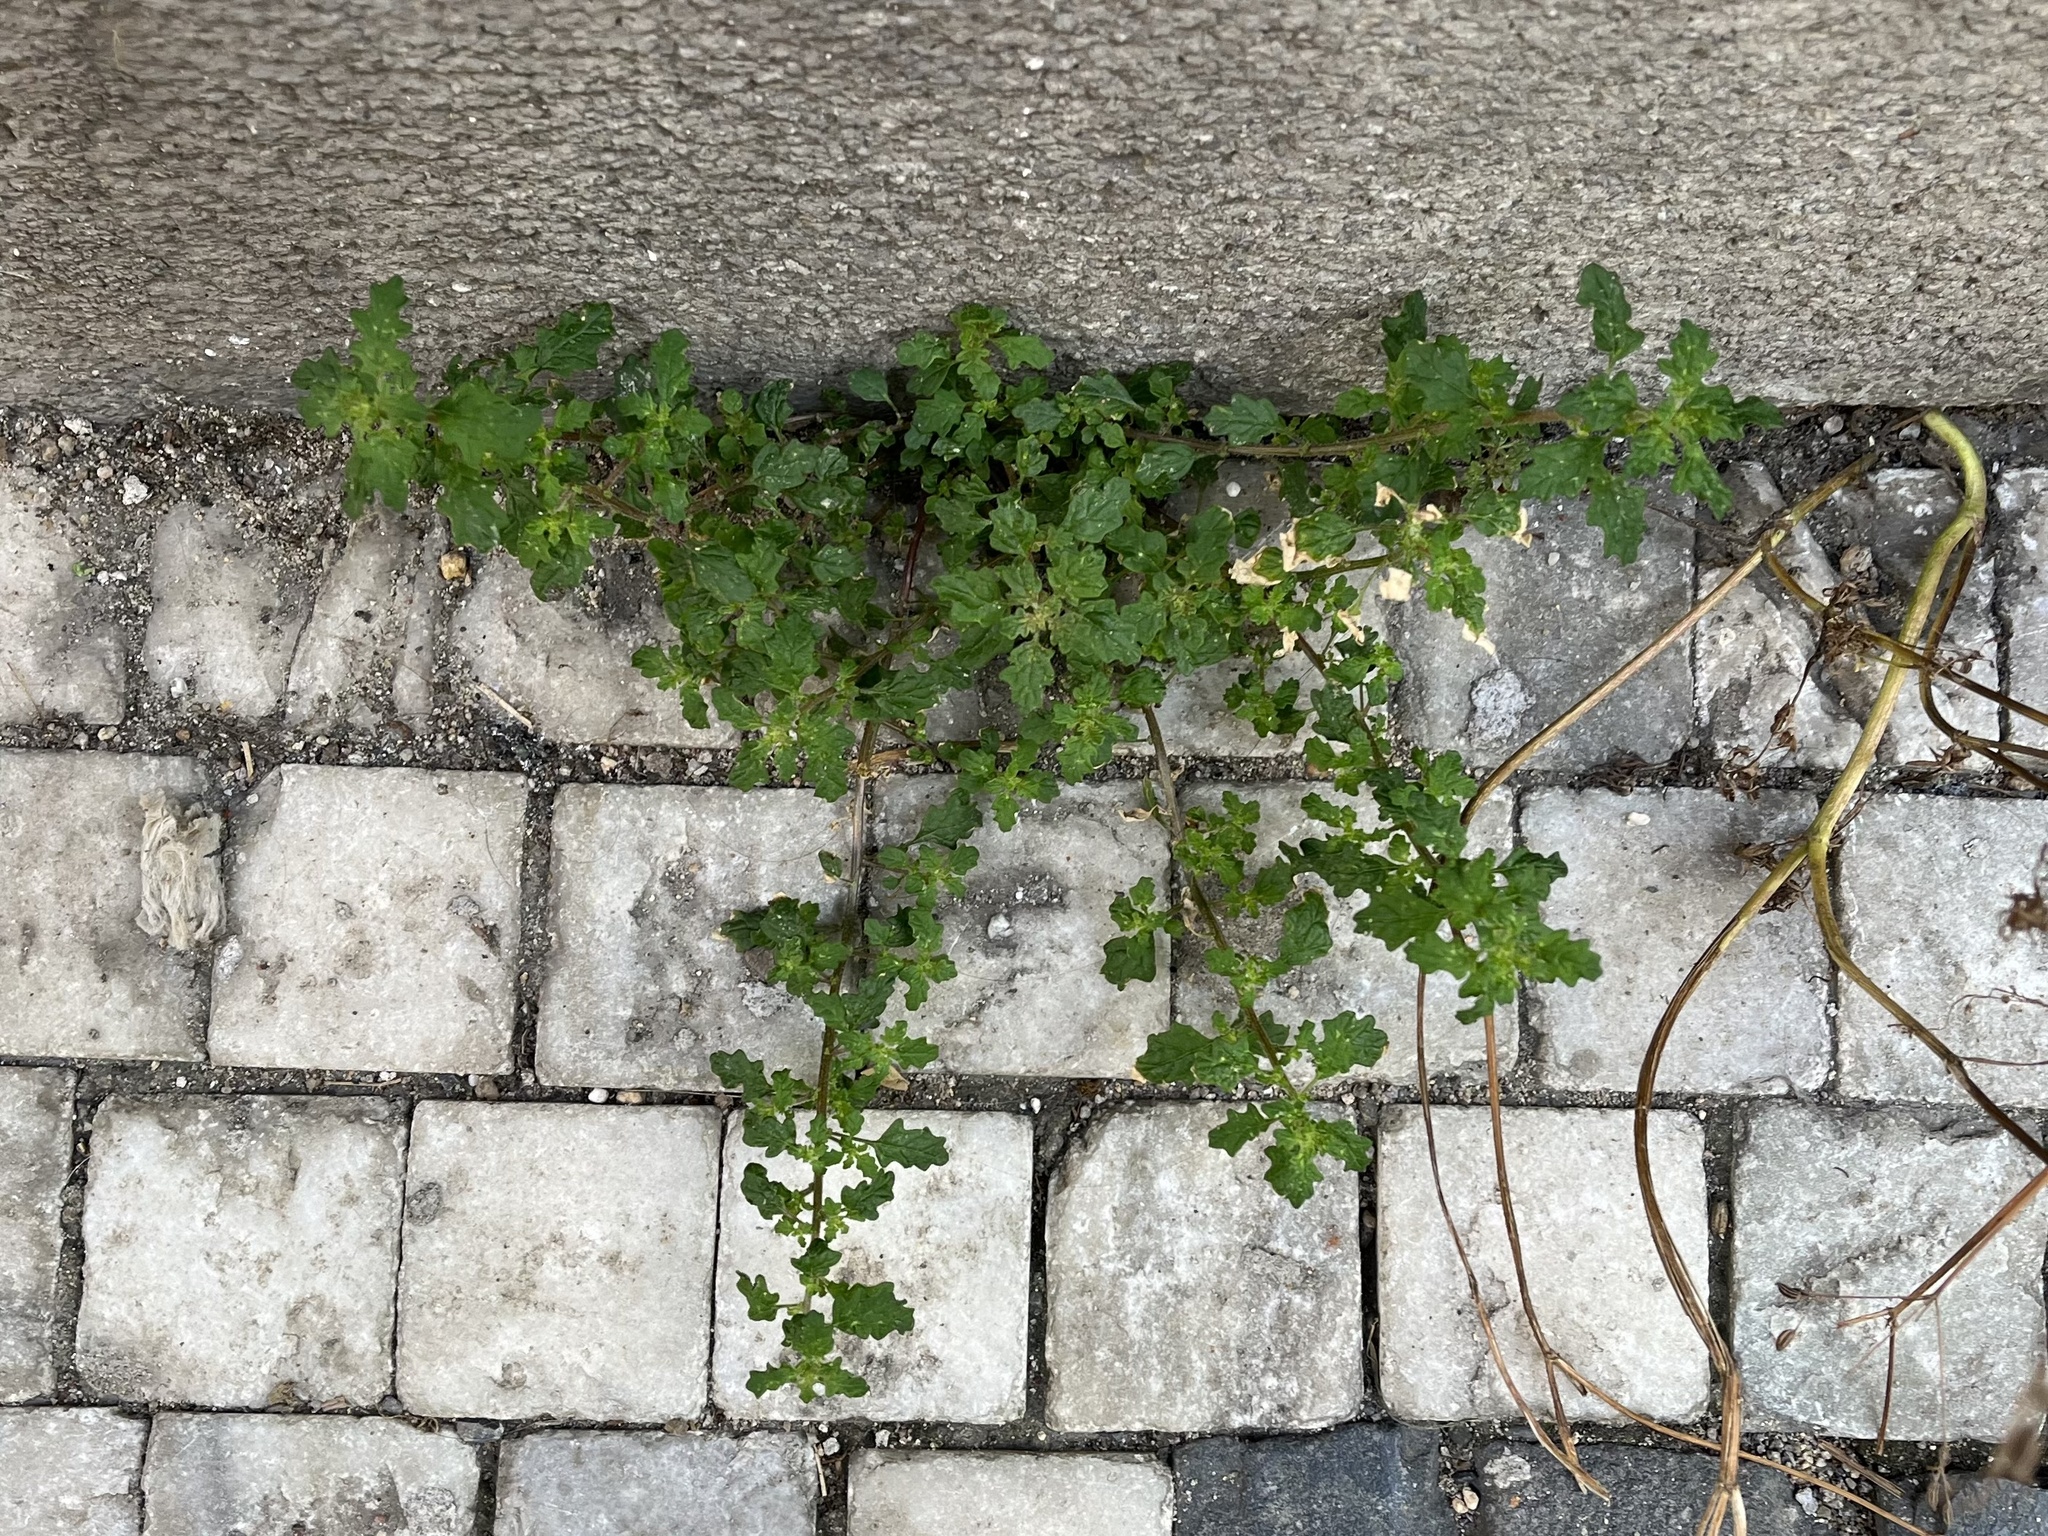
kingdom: Plantae
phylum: Tracheophyta
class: Magnoliopsida
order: Caryophyllales
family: Amaranthaceae
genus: Dysphania
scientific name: Dysphania pumilio
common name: Clammy goosefoot
